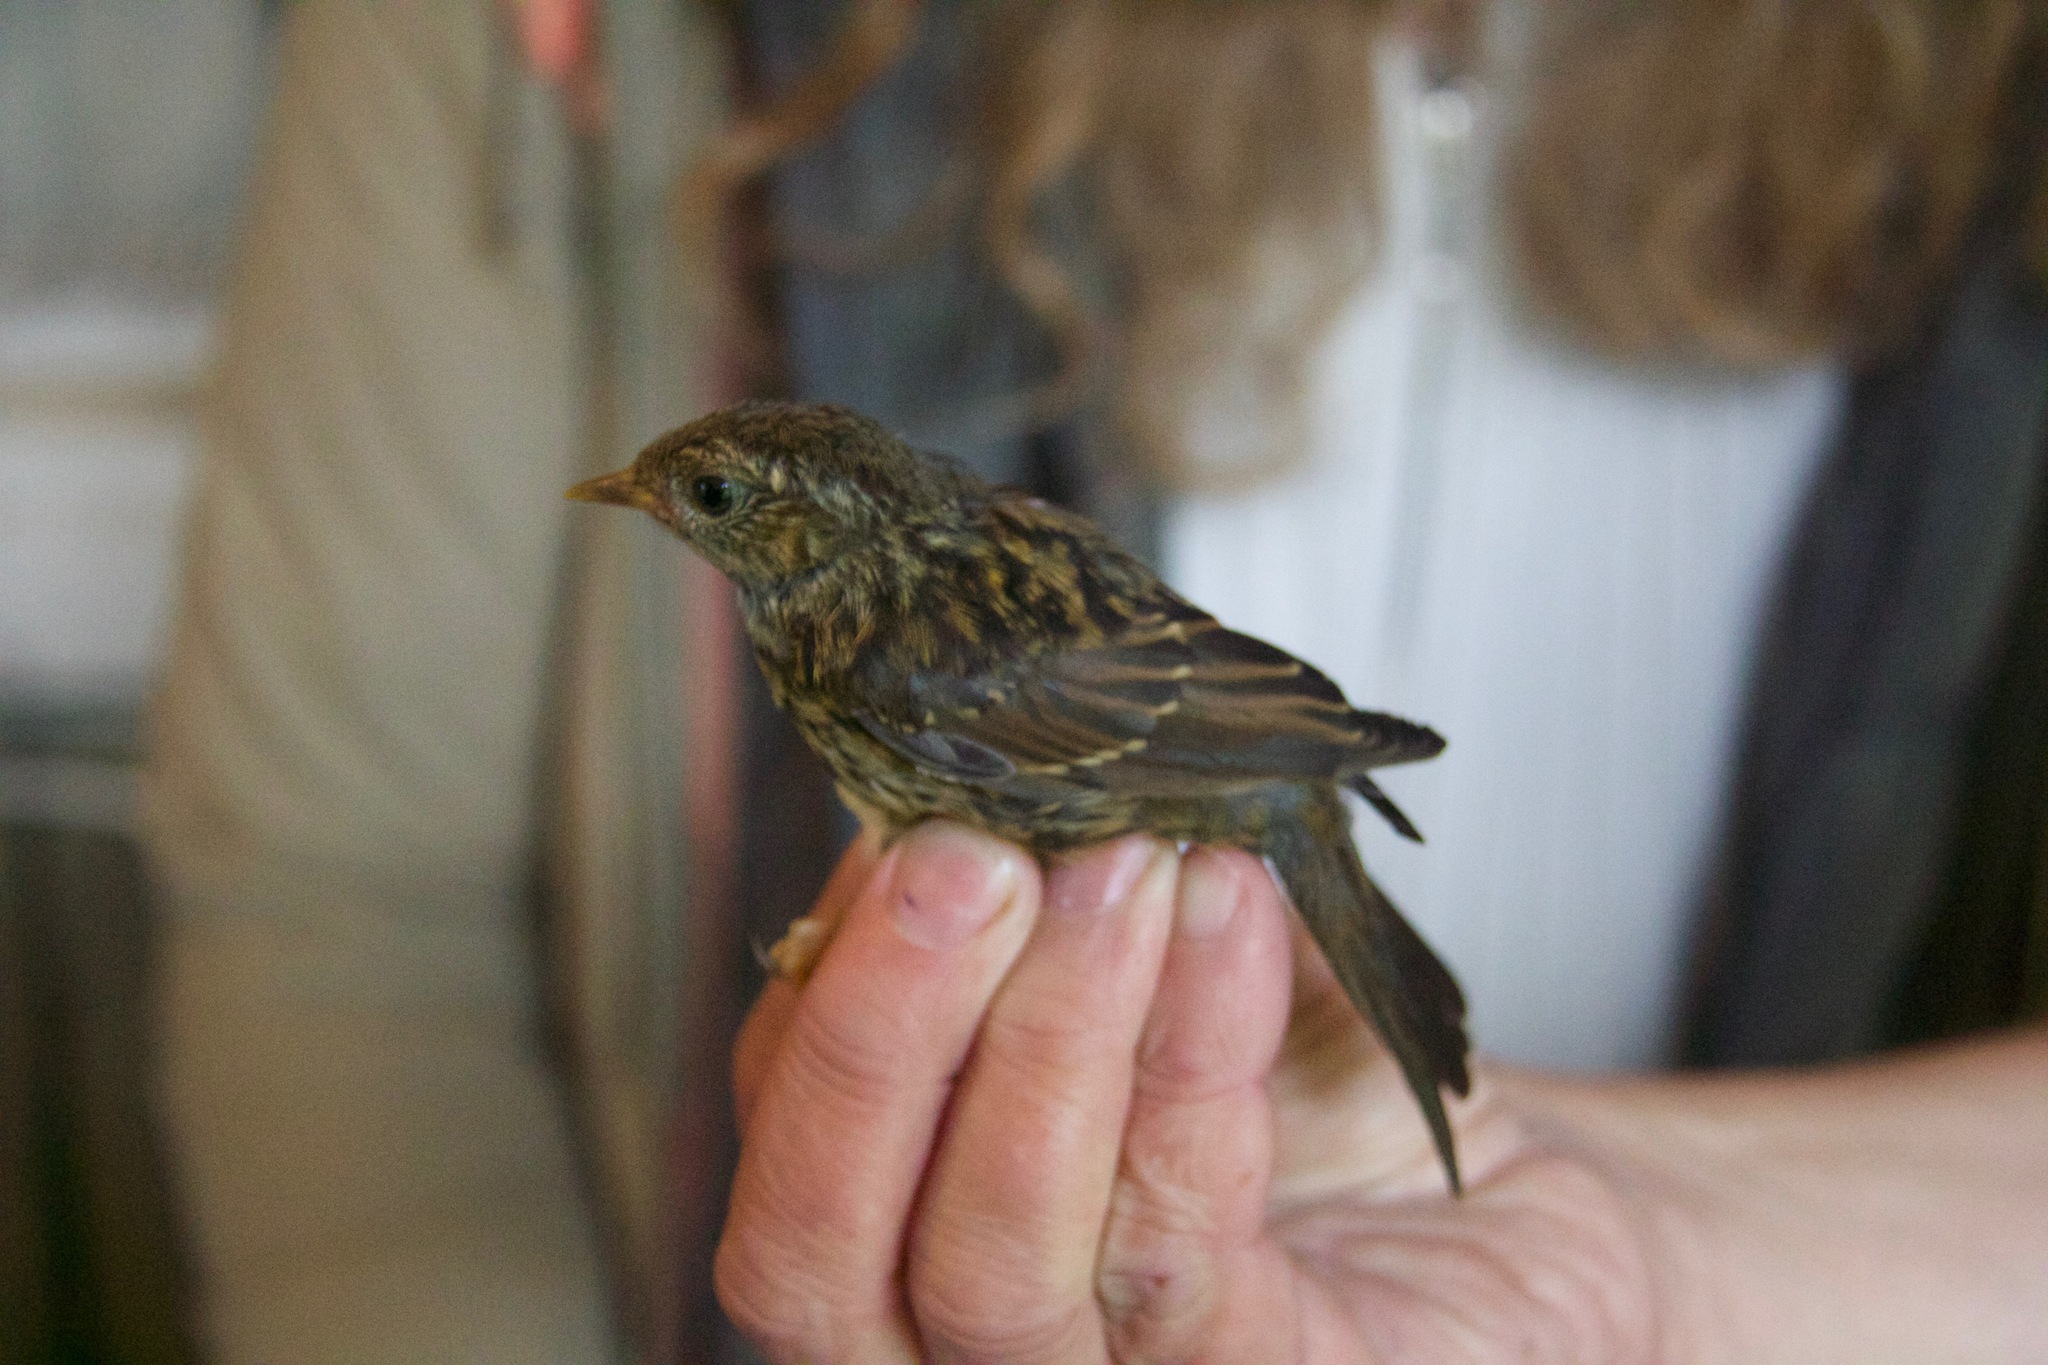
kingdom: Animalia
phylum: Chordata
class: Aves
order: Passeriformes
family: Prunellidae
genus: Prunella
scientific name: Prunella modularis
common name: Dunnock
